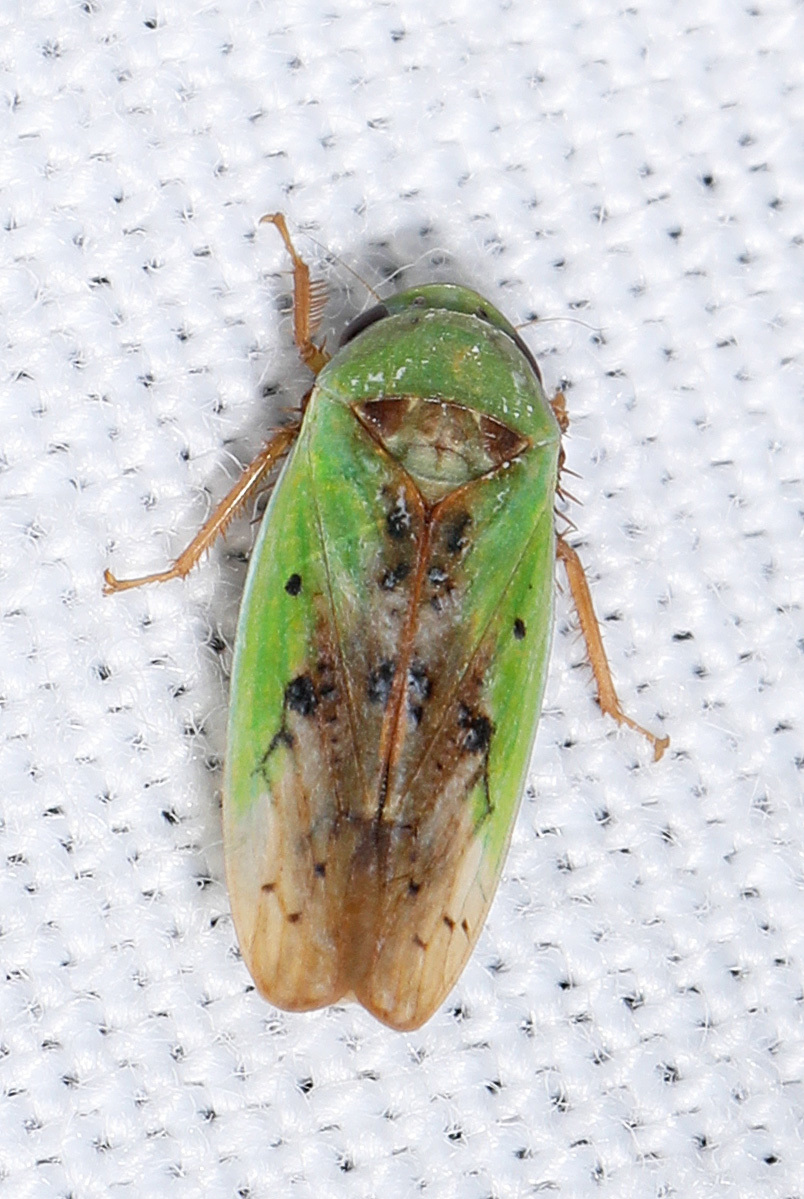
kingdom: Animalia
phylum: Arthropoda
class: Insecta
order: Hemiptera
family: Cicadellidae
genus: Ponana
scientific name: Ponana pectoralis
